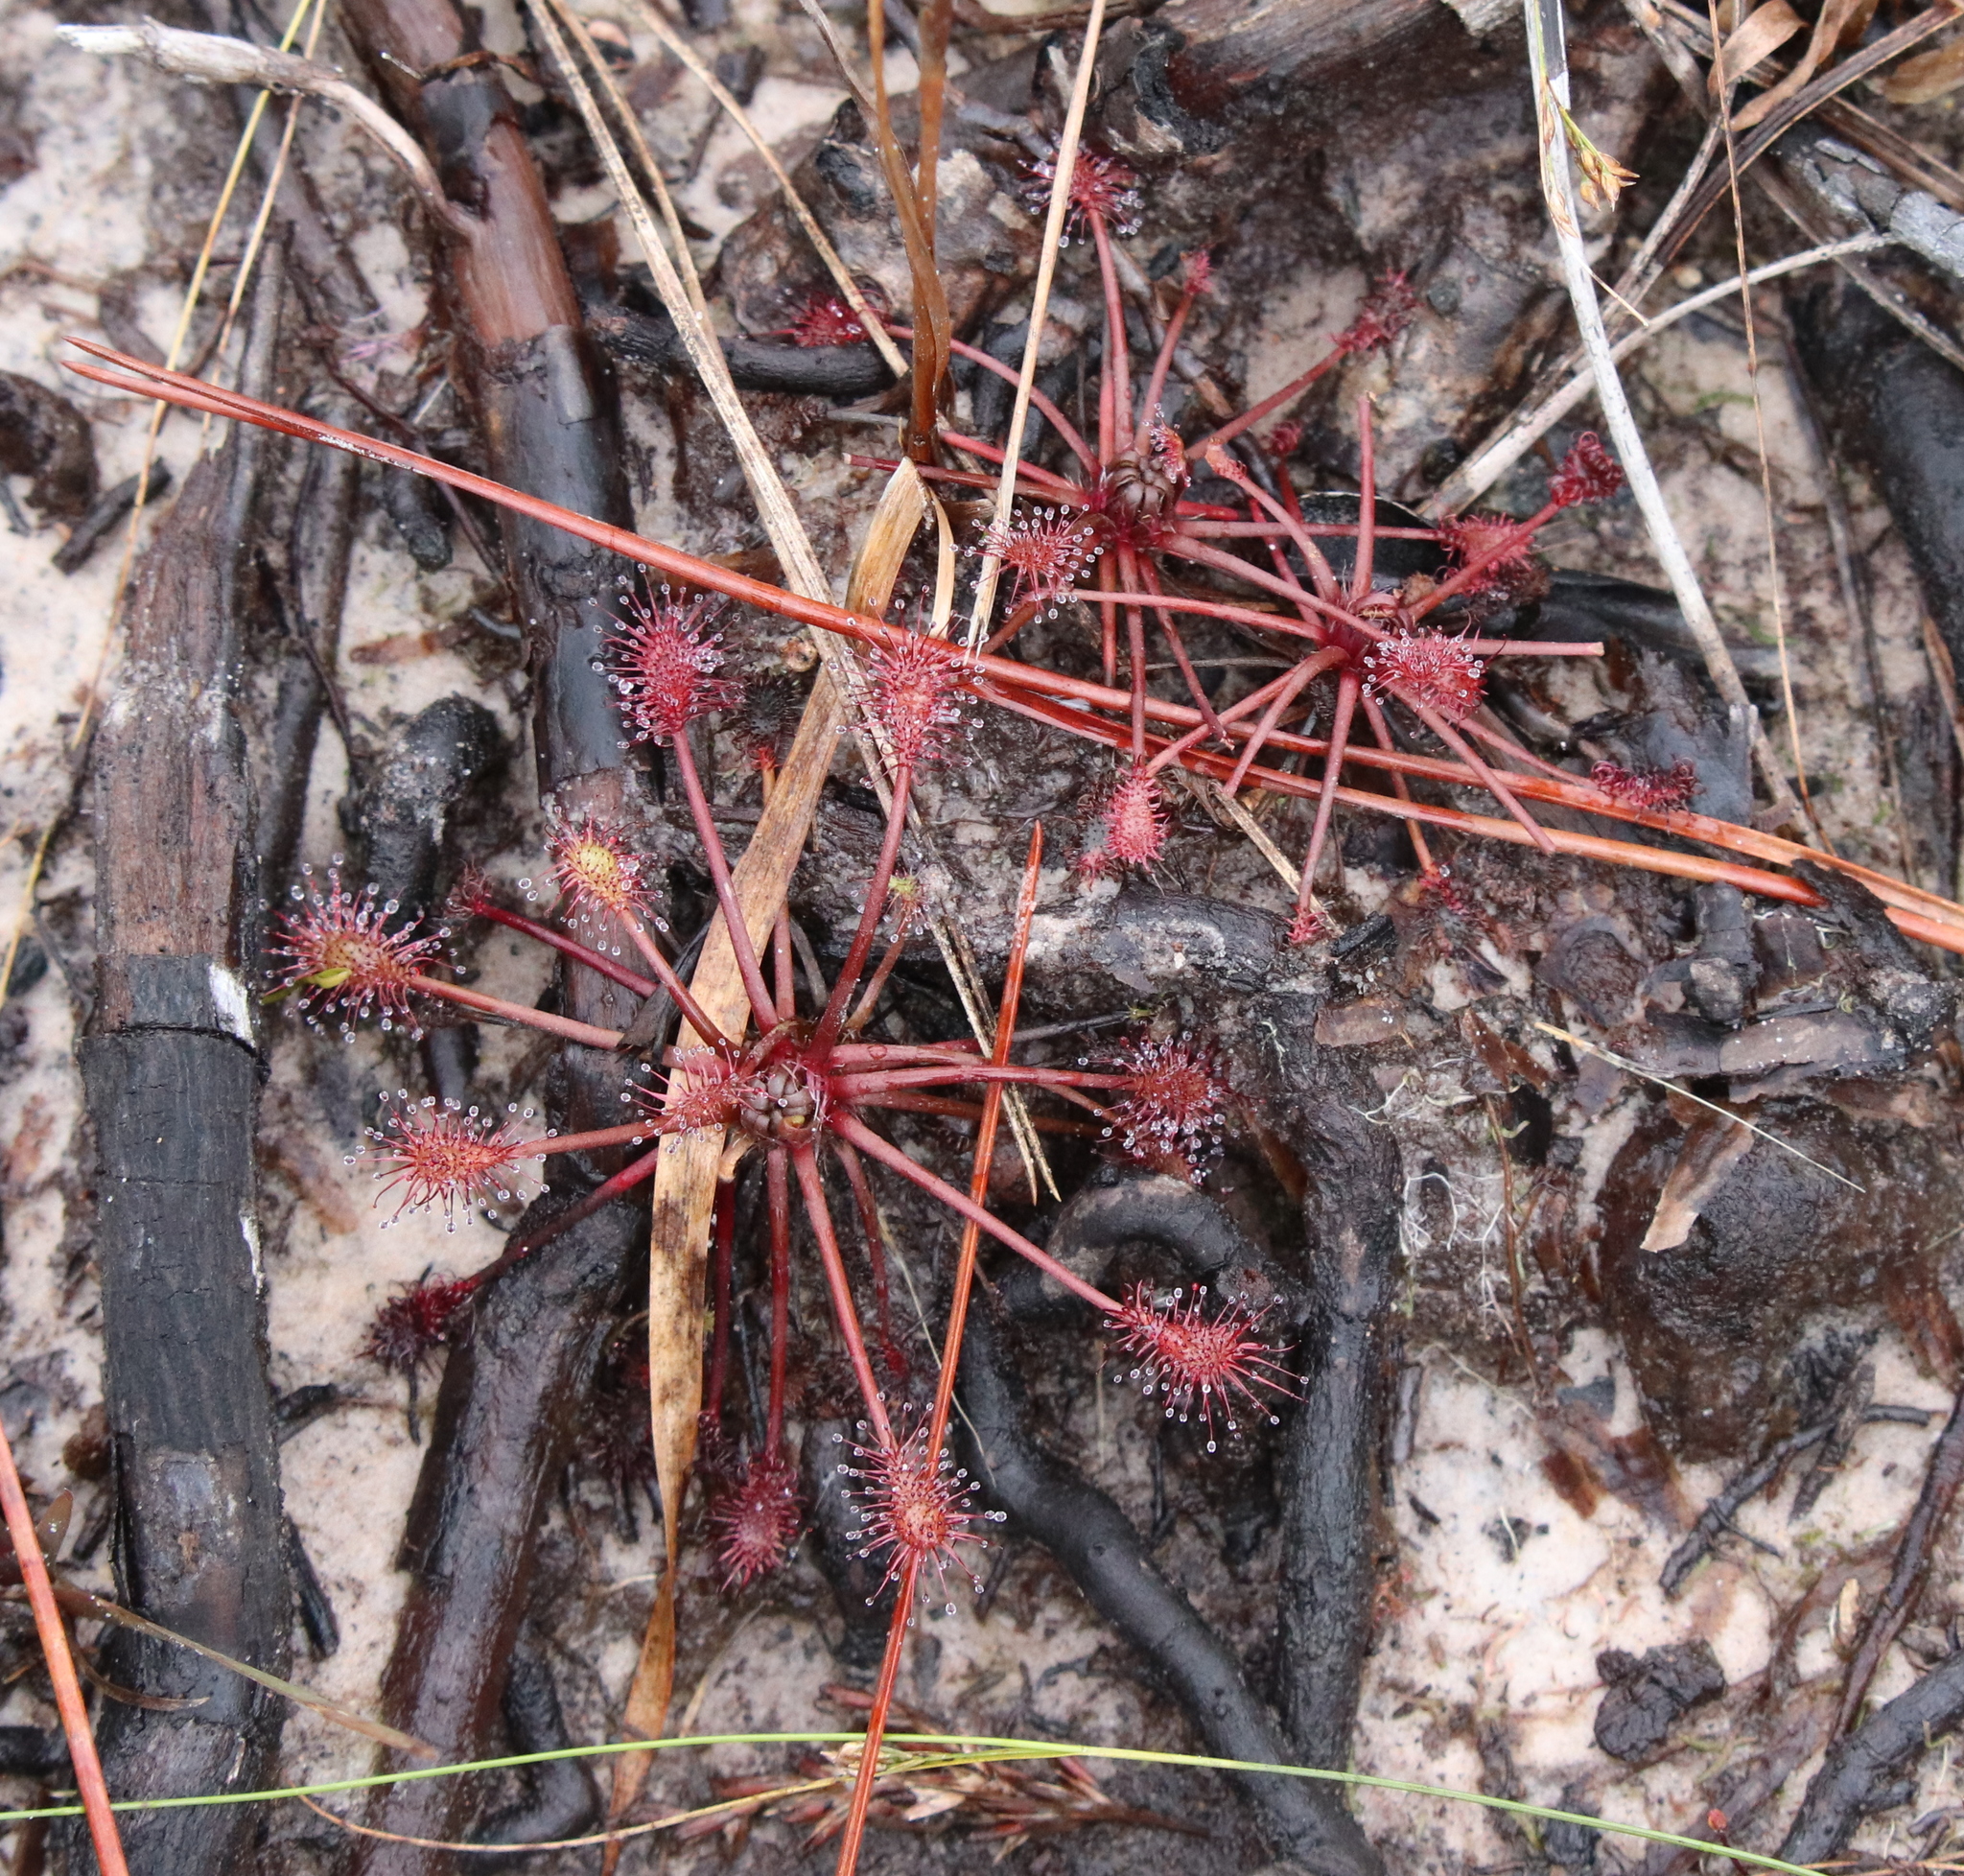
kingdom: Plantae
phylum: Tracheophyta
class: Magnoliopsida
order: Caryophyllales
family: Droseraceae
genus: Drosera
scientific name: Drosera intermedia
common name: Oblong-leaved sundew
